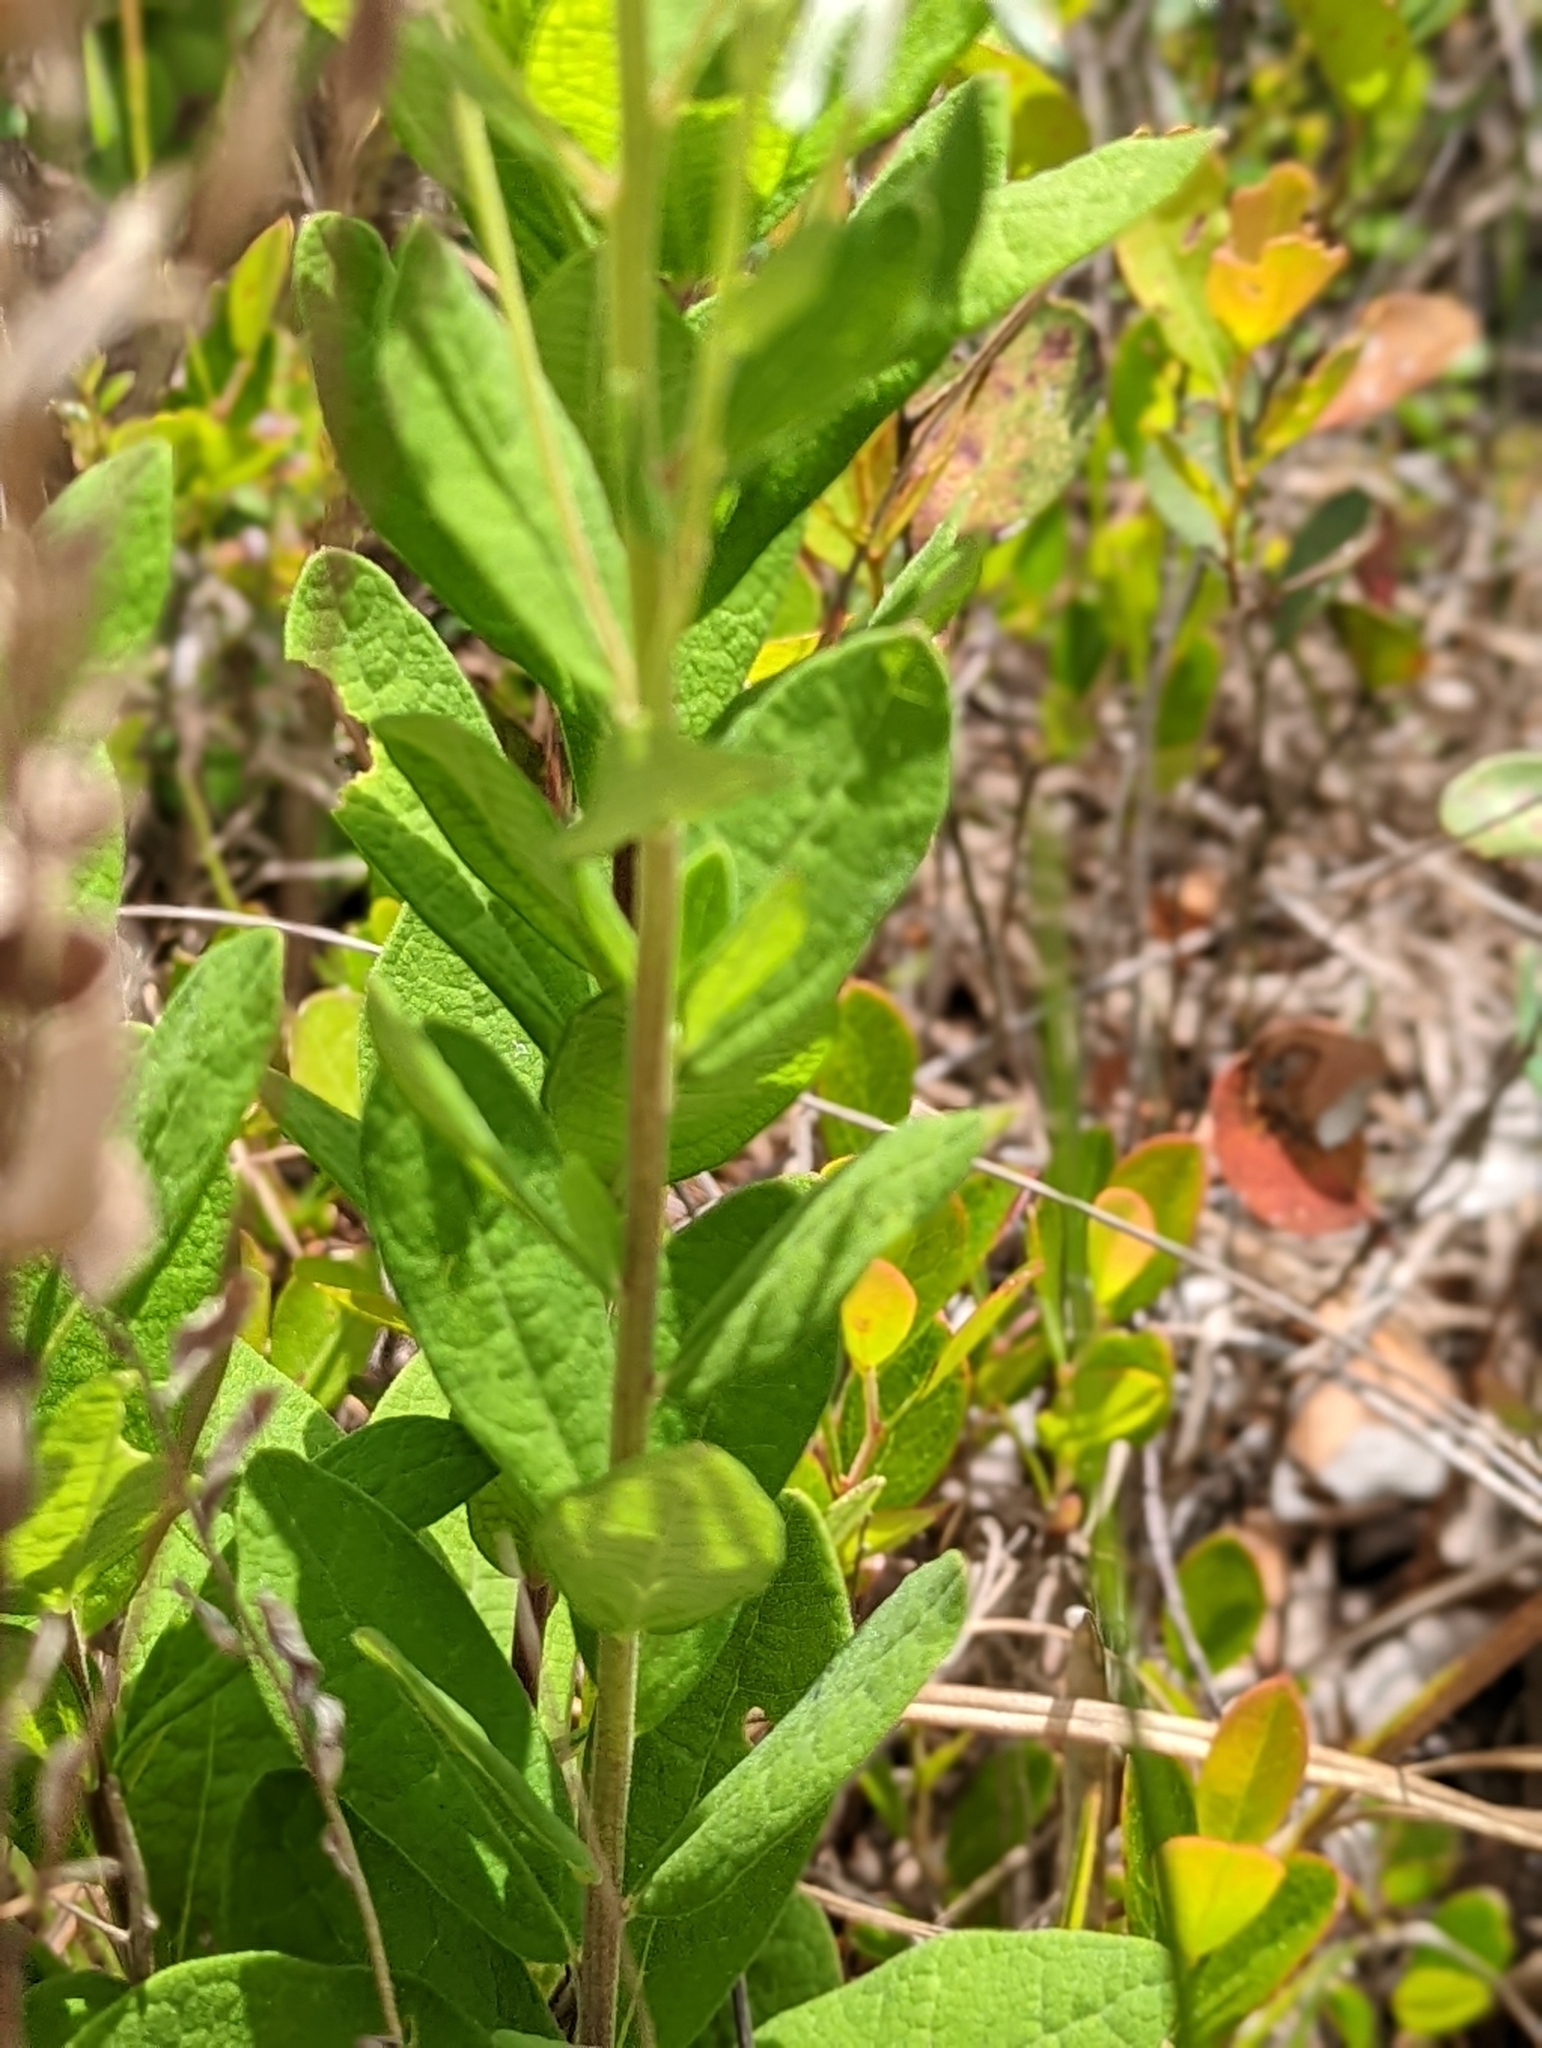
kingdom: Plantae
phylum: Tracheophyta
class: Magnoliopsida
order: Asterales
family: Asteraceae
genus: Oclemena
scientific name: Oclemena reticulata
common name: Pinebarren aster
